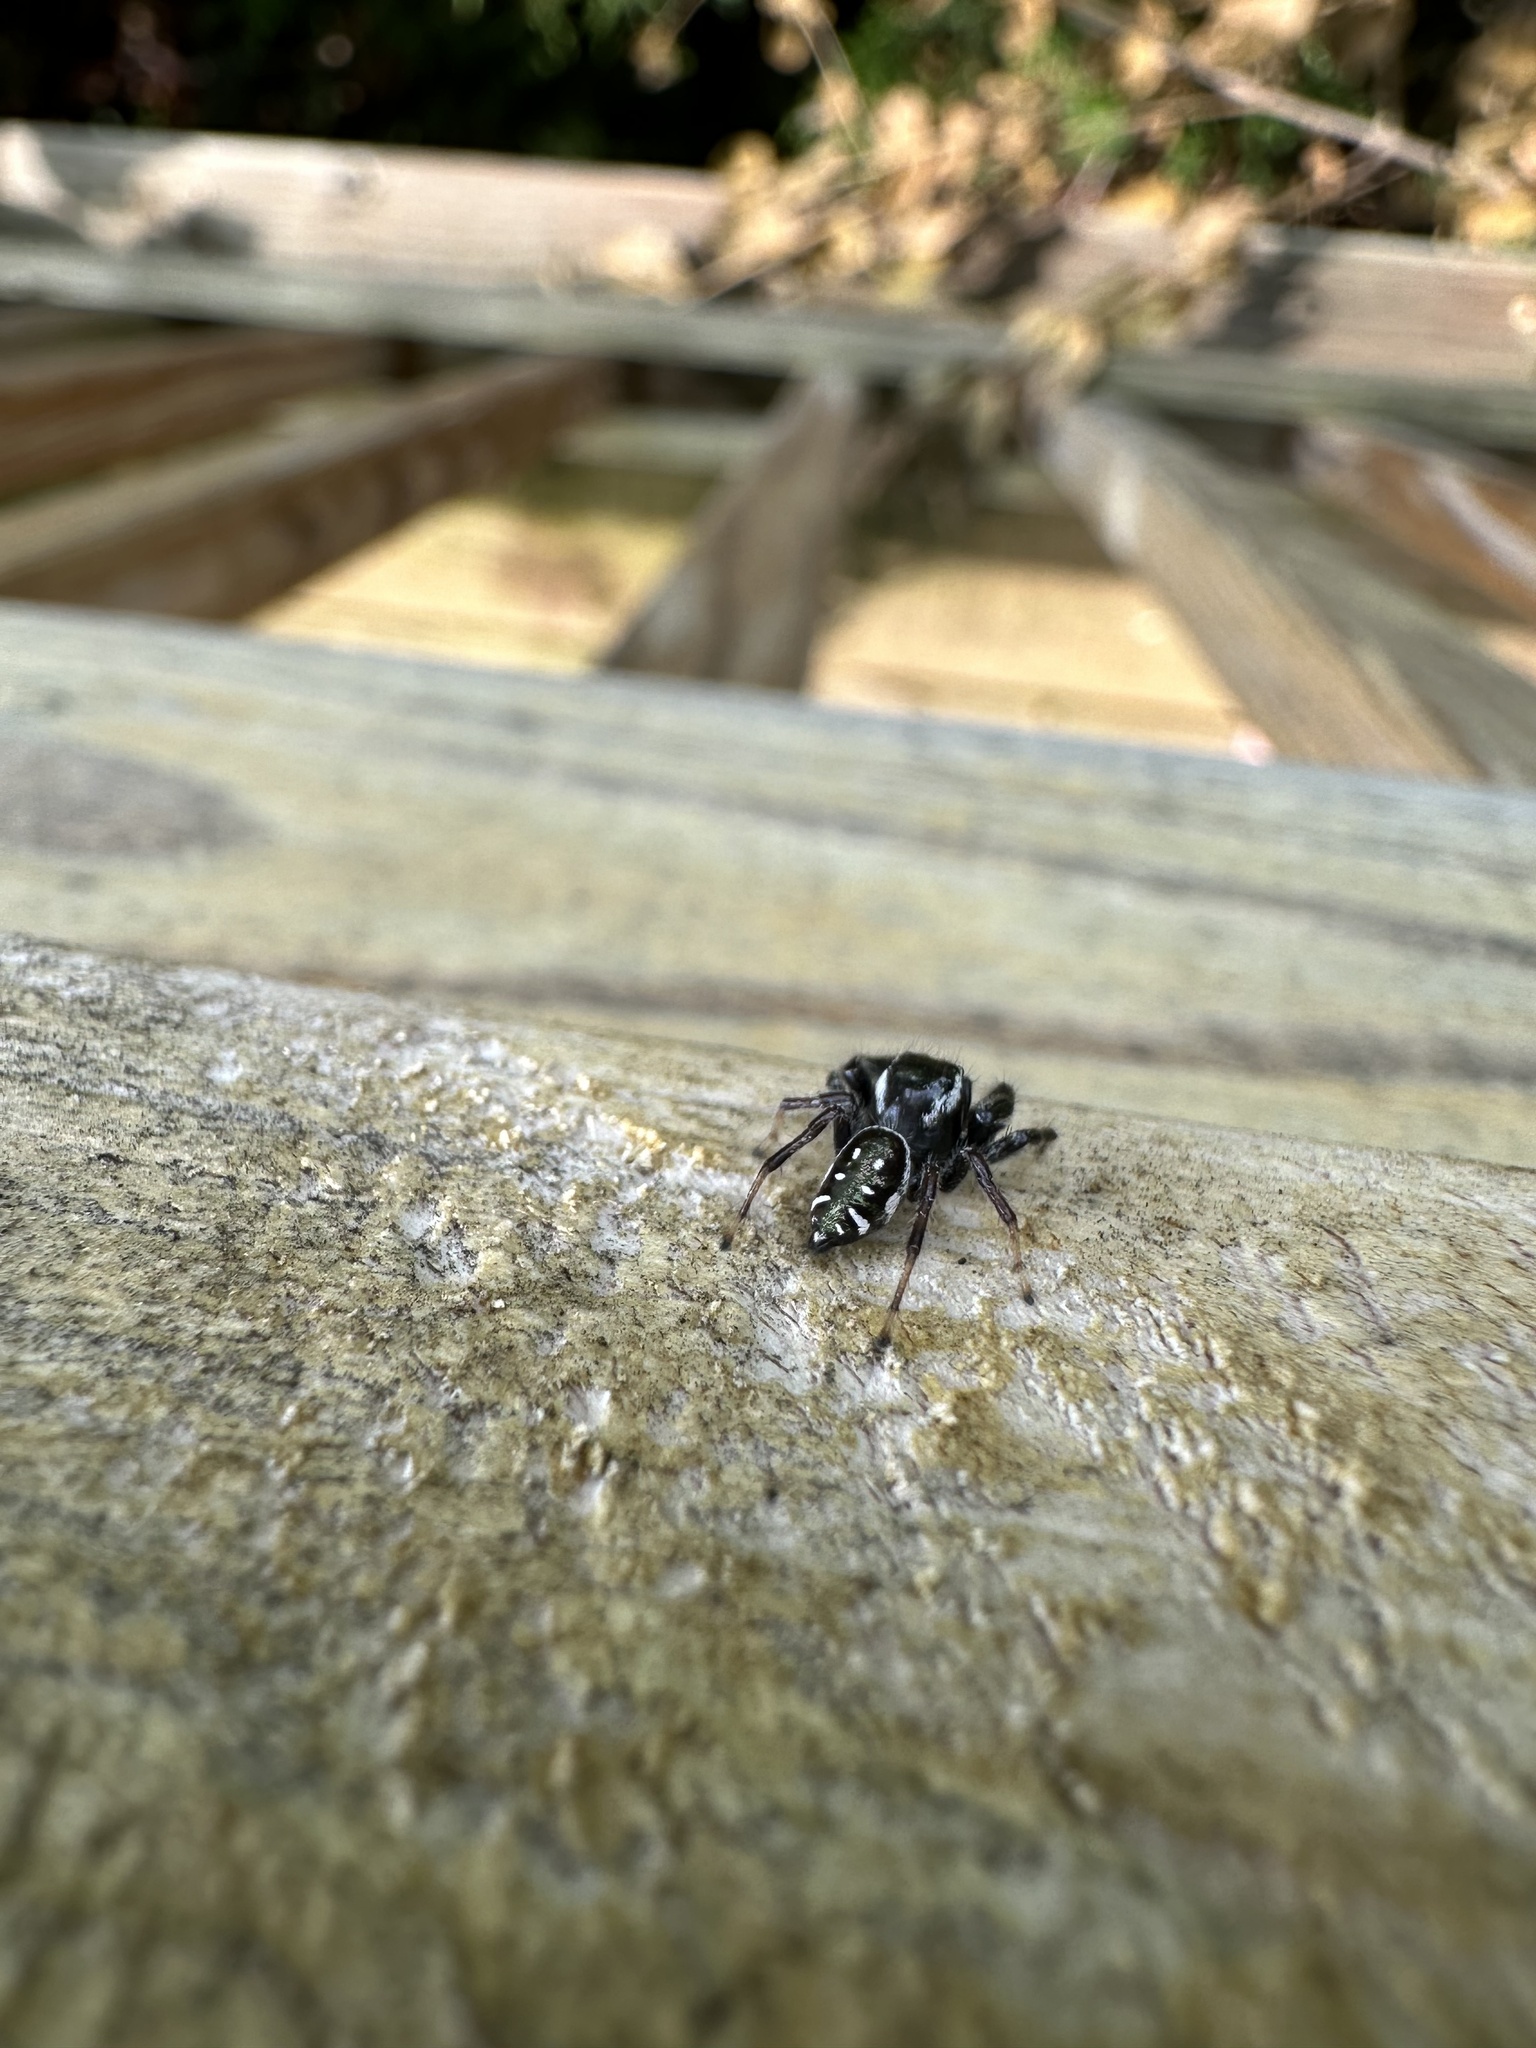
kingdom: Animalia
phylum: Arthropoda
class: Arachnida
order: Araneae
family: Salticidae
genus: Paraphidippus
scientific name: Paraphidippus aurantius
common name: Jumping spiders
